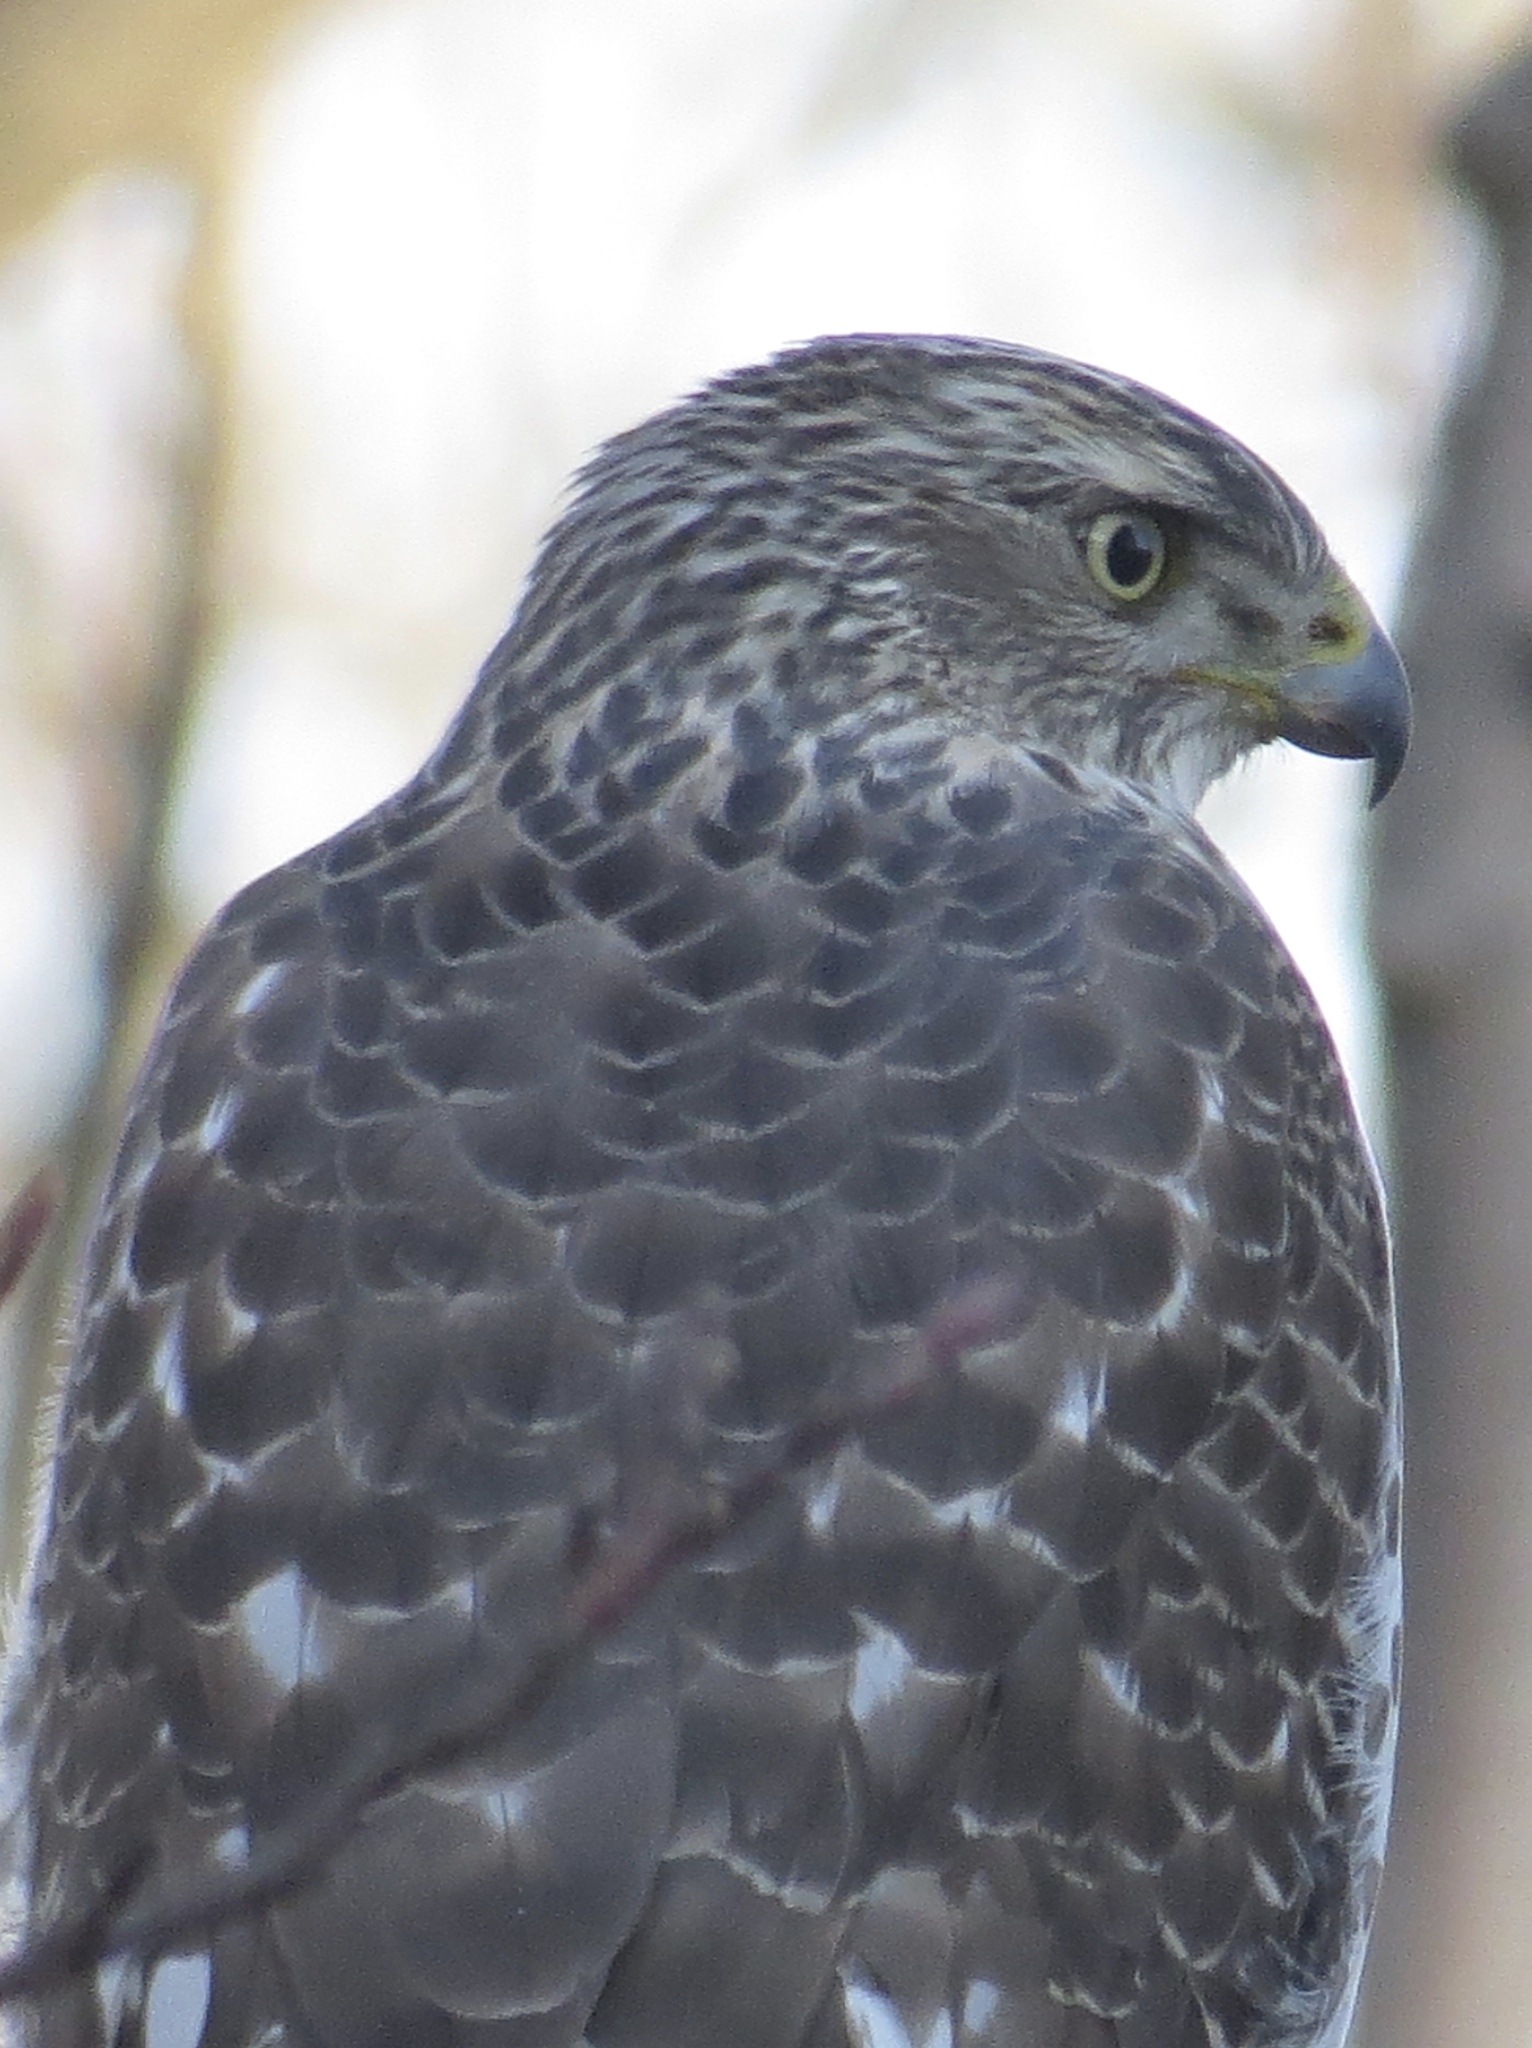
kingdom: Animalia
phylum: Chordata
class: Aves
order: Accipitriformes
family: Accipitridae
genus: Accipiter
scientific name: Accipiter cooperii
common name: Cooper's hawk
